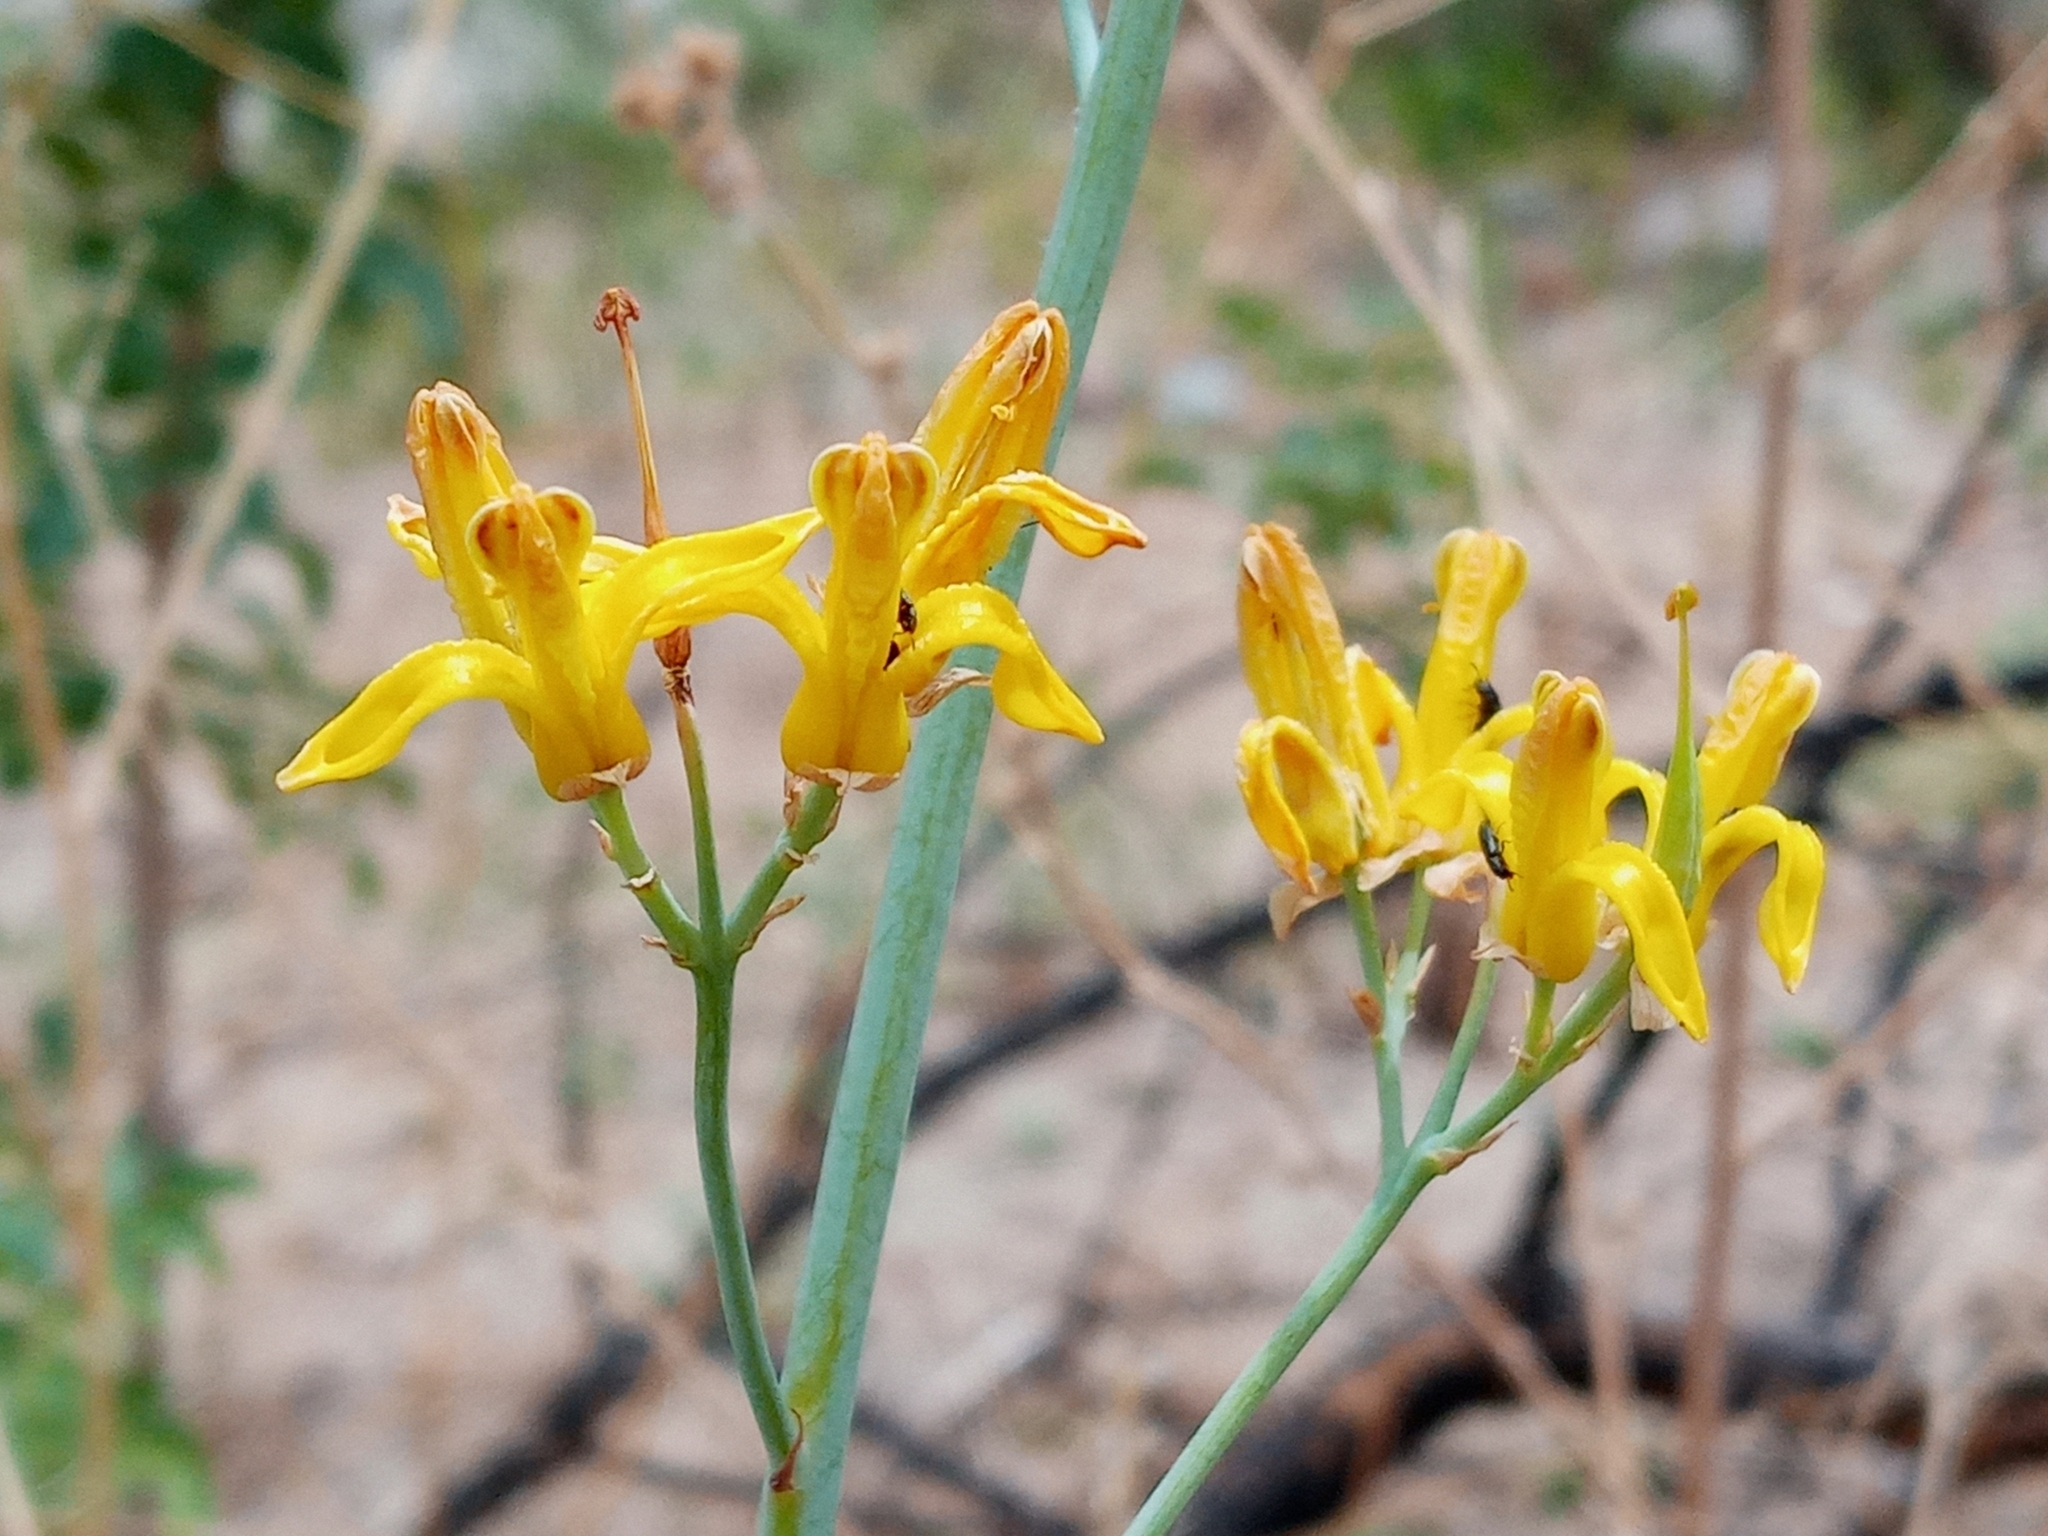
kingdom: Plantae
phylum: Tracheophyta
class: Magnoliopsida
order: Ranunculales
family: Papaveraceae
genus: Ehrendorferia
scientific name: Ehrendorferia chrysantha
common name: Golden eardrops
